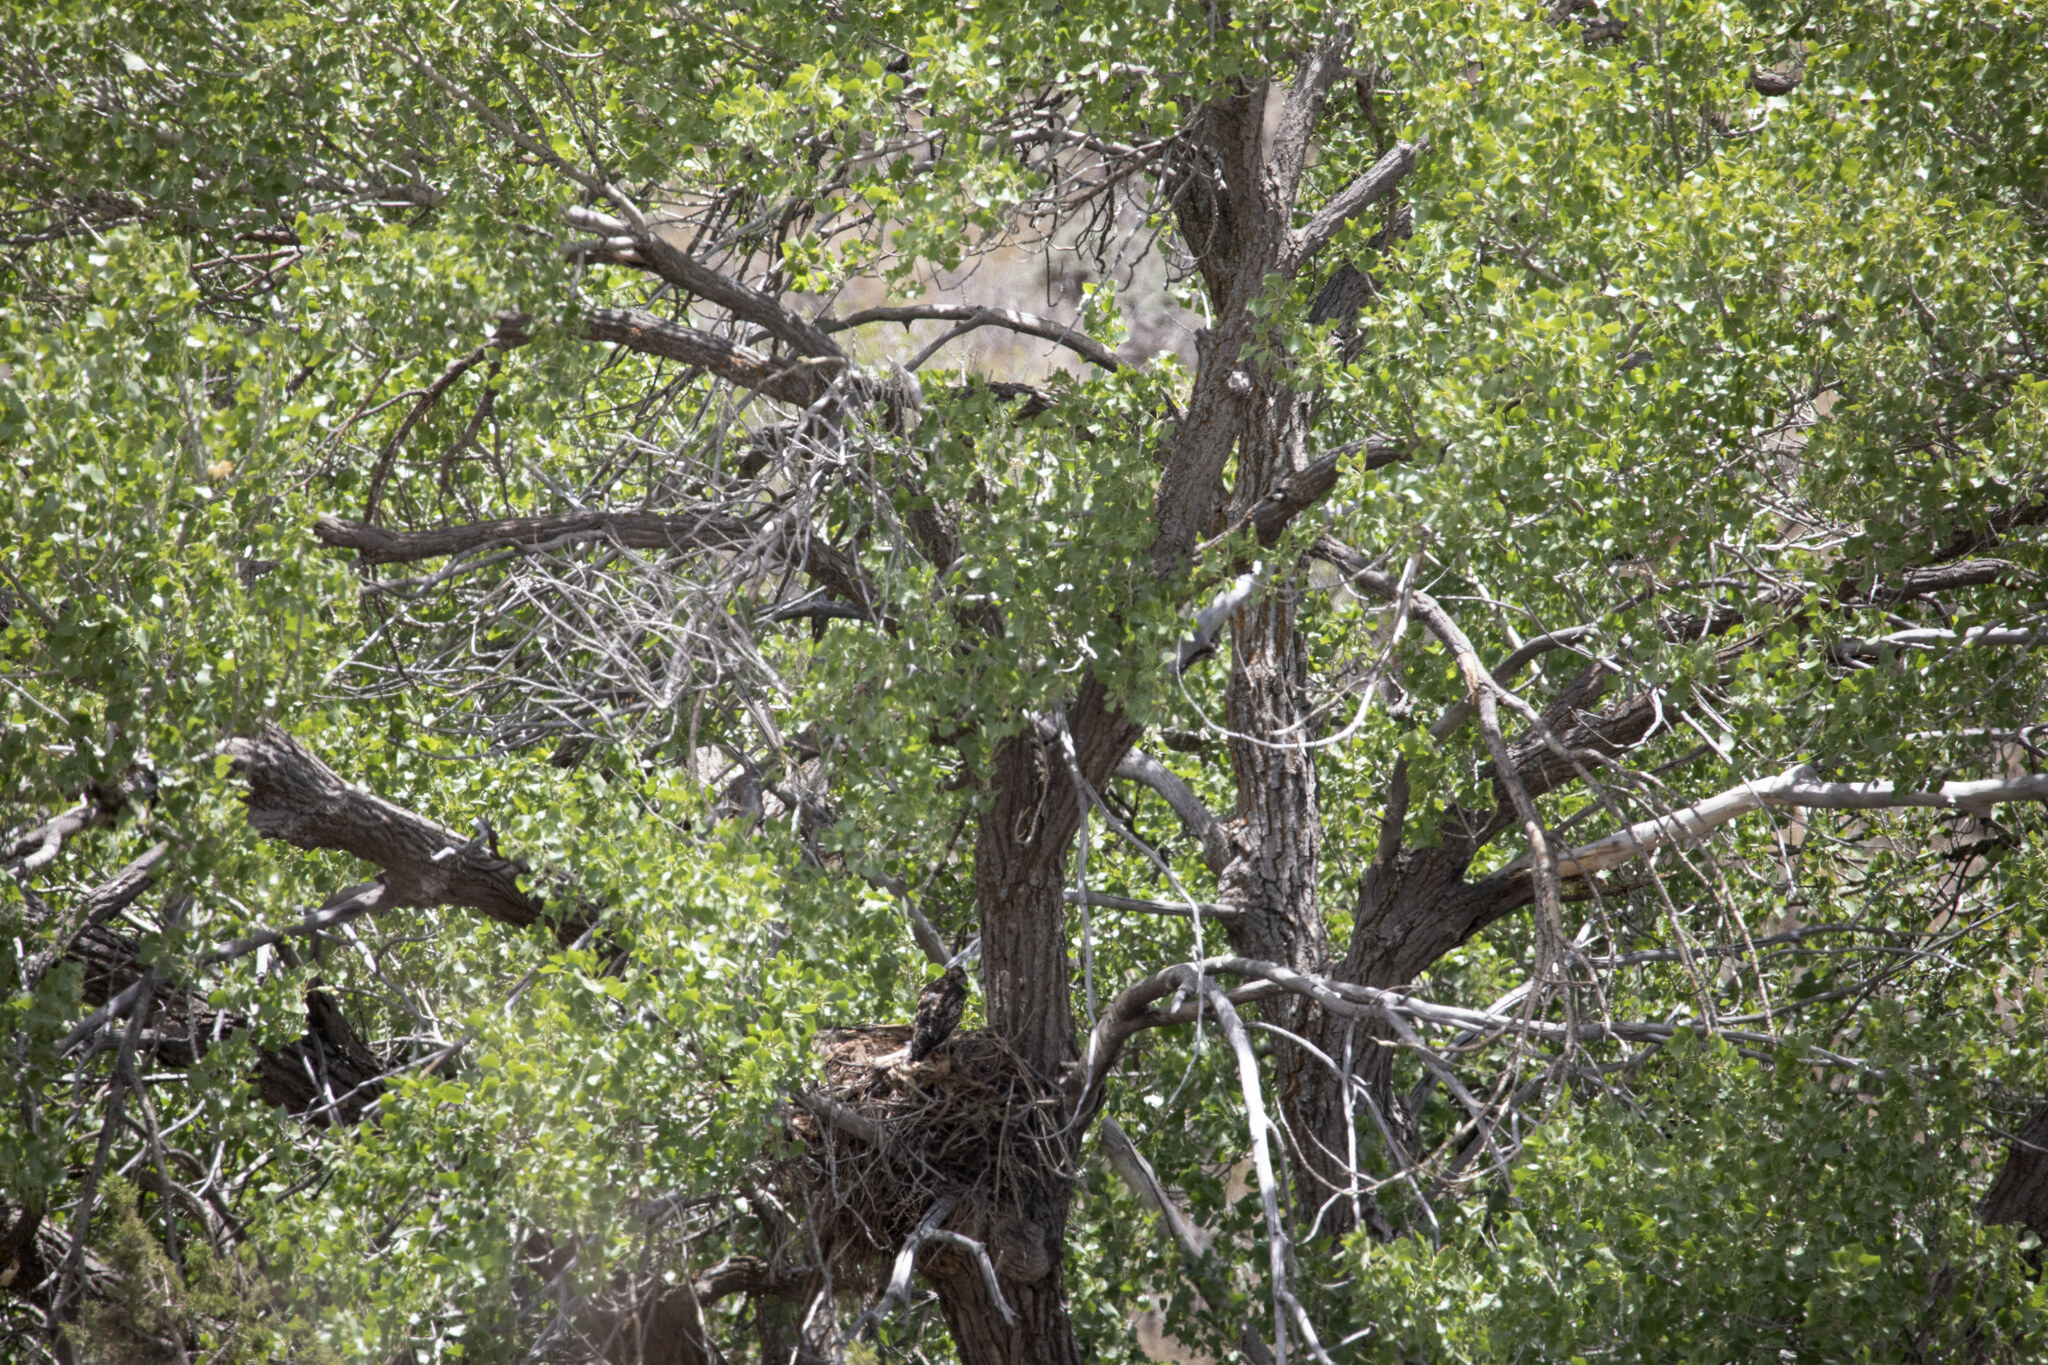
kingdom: Animalia
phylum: Chordata
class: Aves
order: Accipitriformes
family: Accipitridae
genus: Buteo
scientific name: Buteo jamaicensis
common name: Red-tailed hawk
